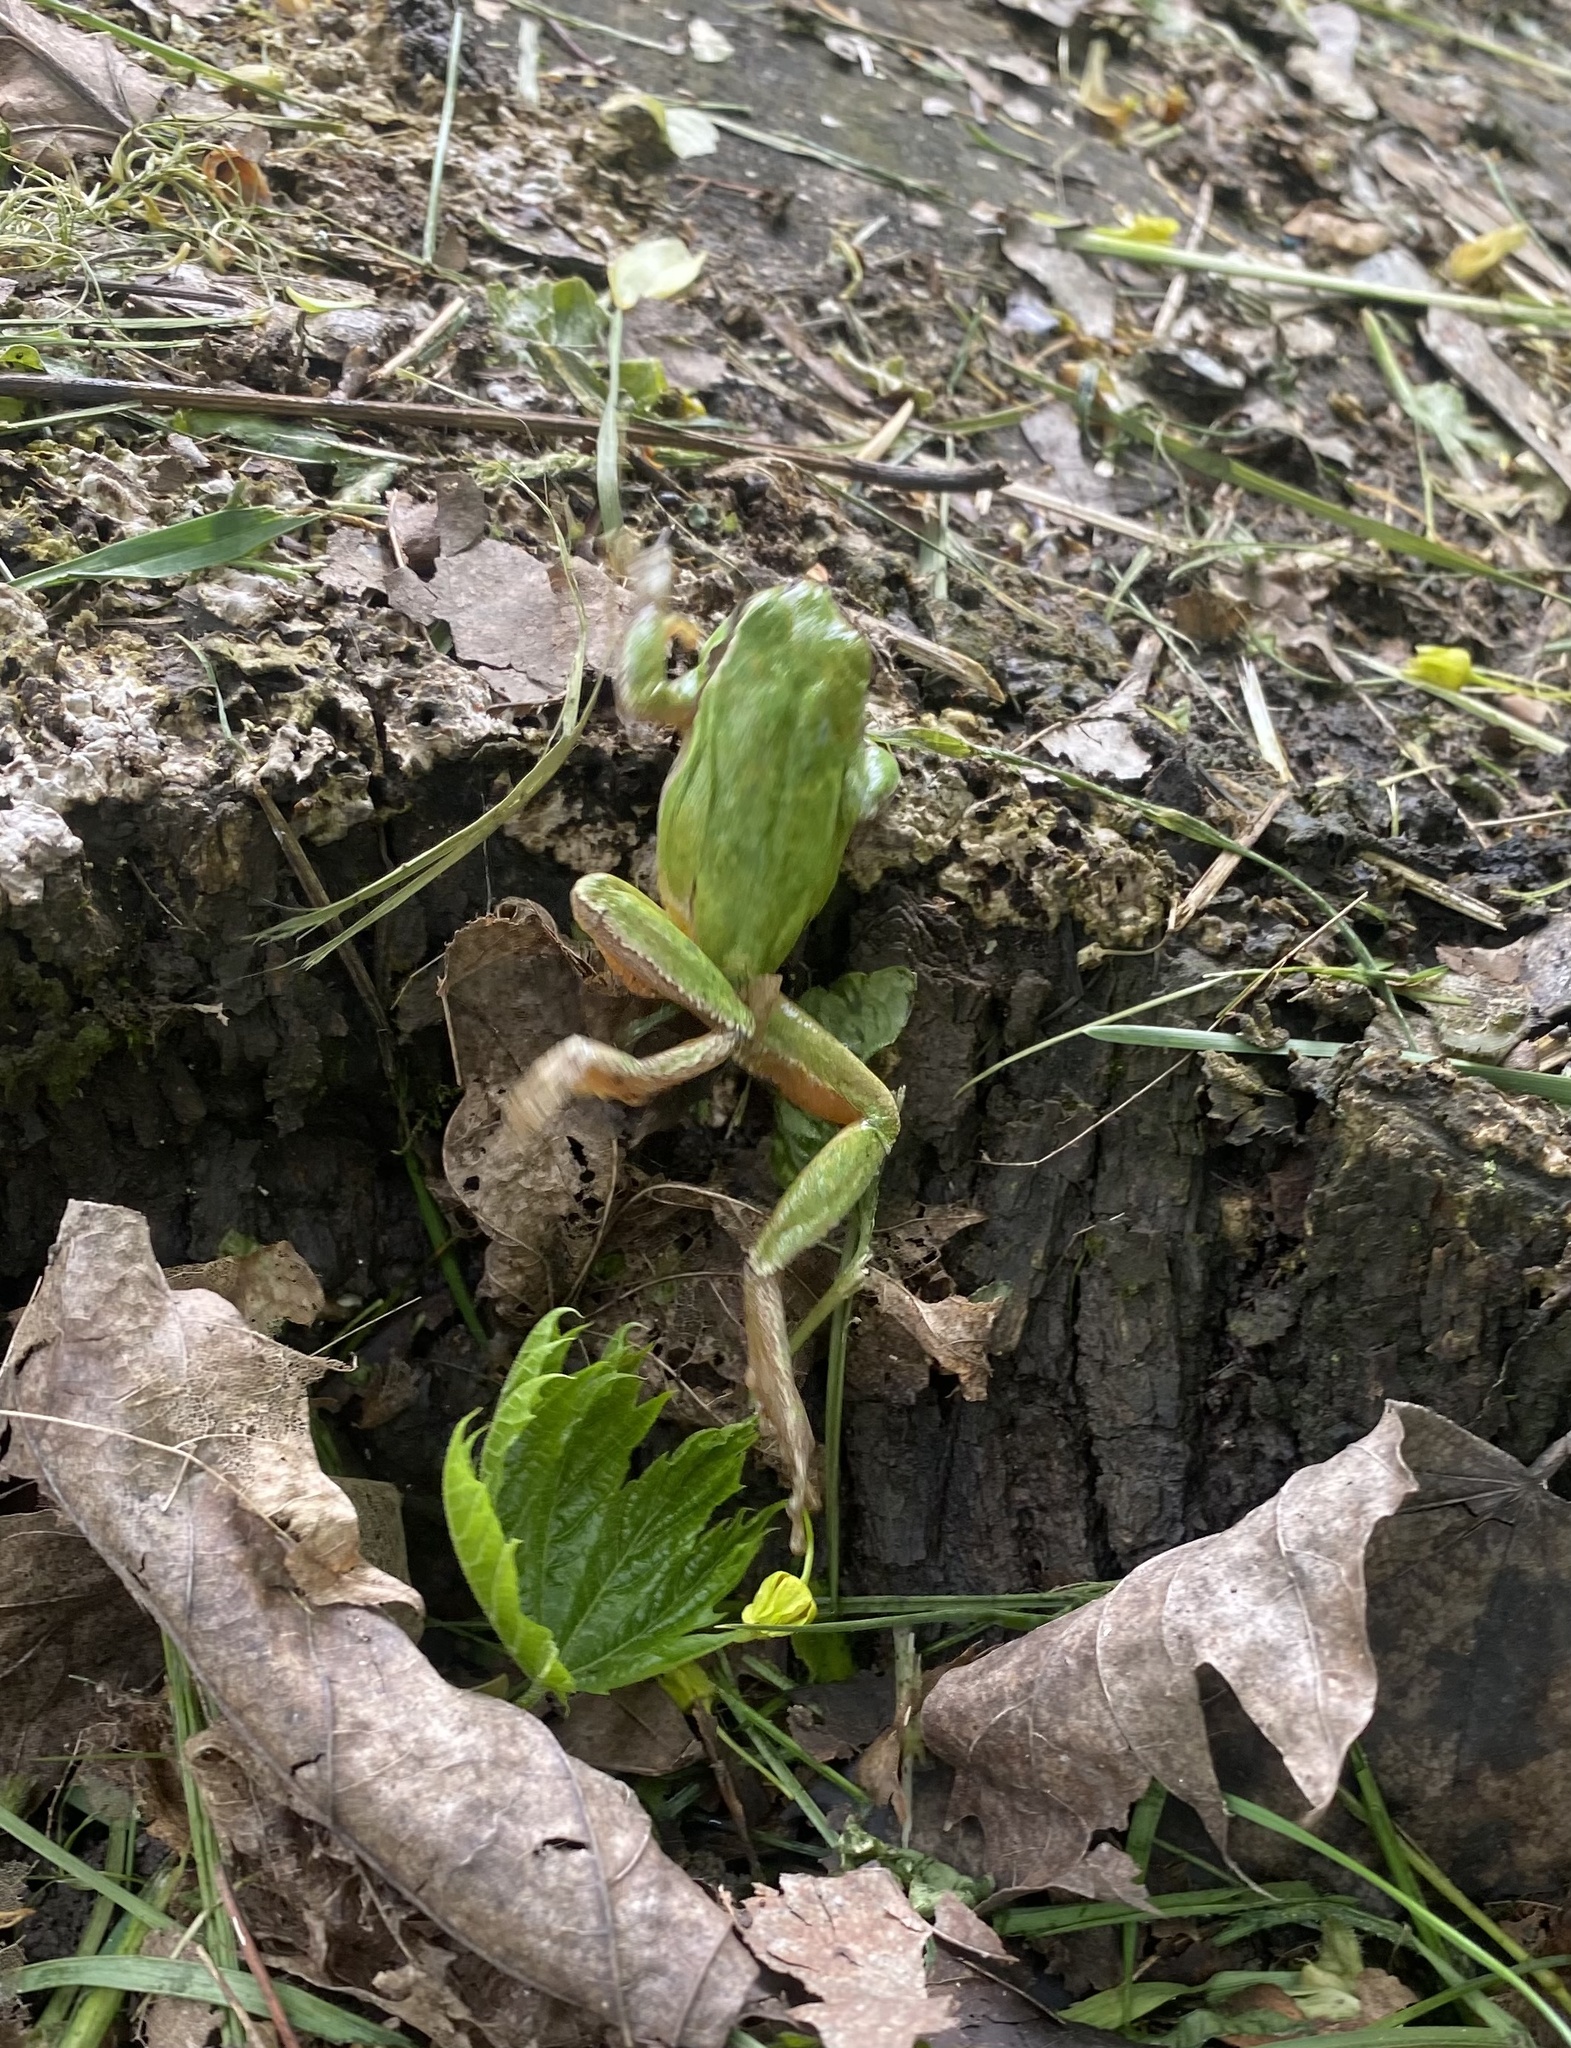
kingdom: Animalia
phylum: Chordata
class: Amphibia
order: Anura
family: Hylidae
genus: Hyla
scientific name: Hyla orientalis
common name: Caucasian treefrog
